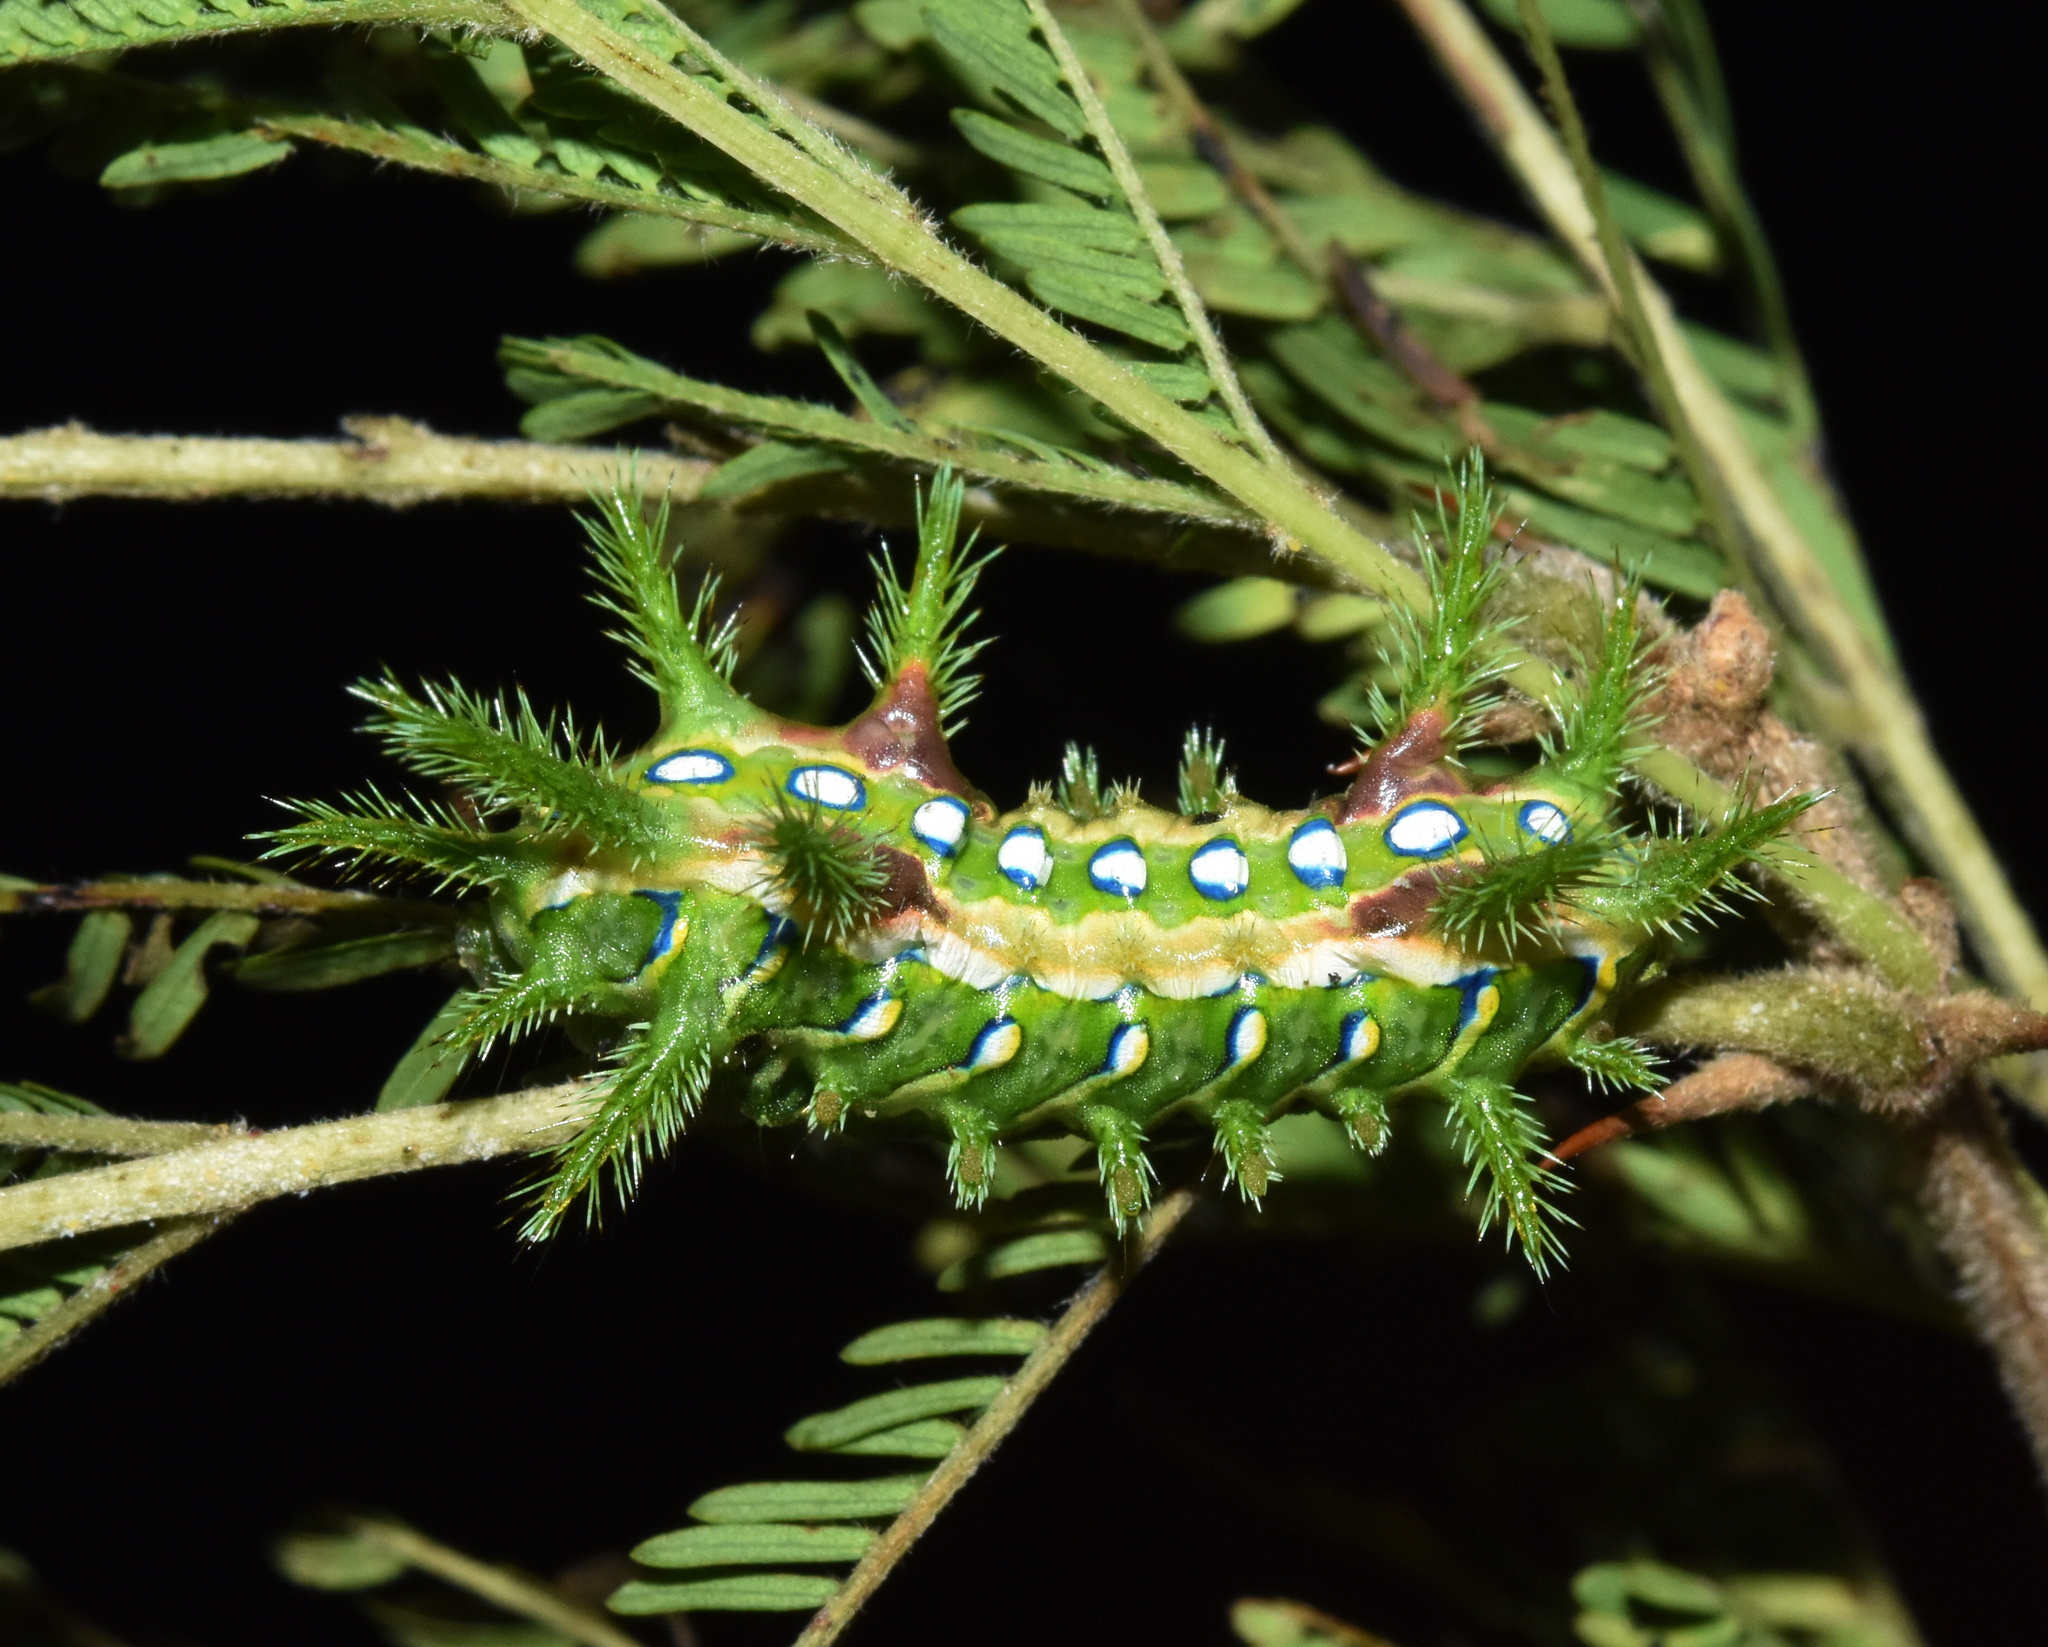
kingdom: Animalia
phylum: Arthropoda
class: Insecta
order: Lepidoptera
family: Limacodidae
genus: Coenobasis
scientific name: Coenobasis amoena
